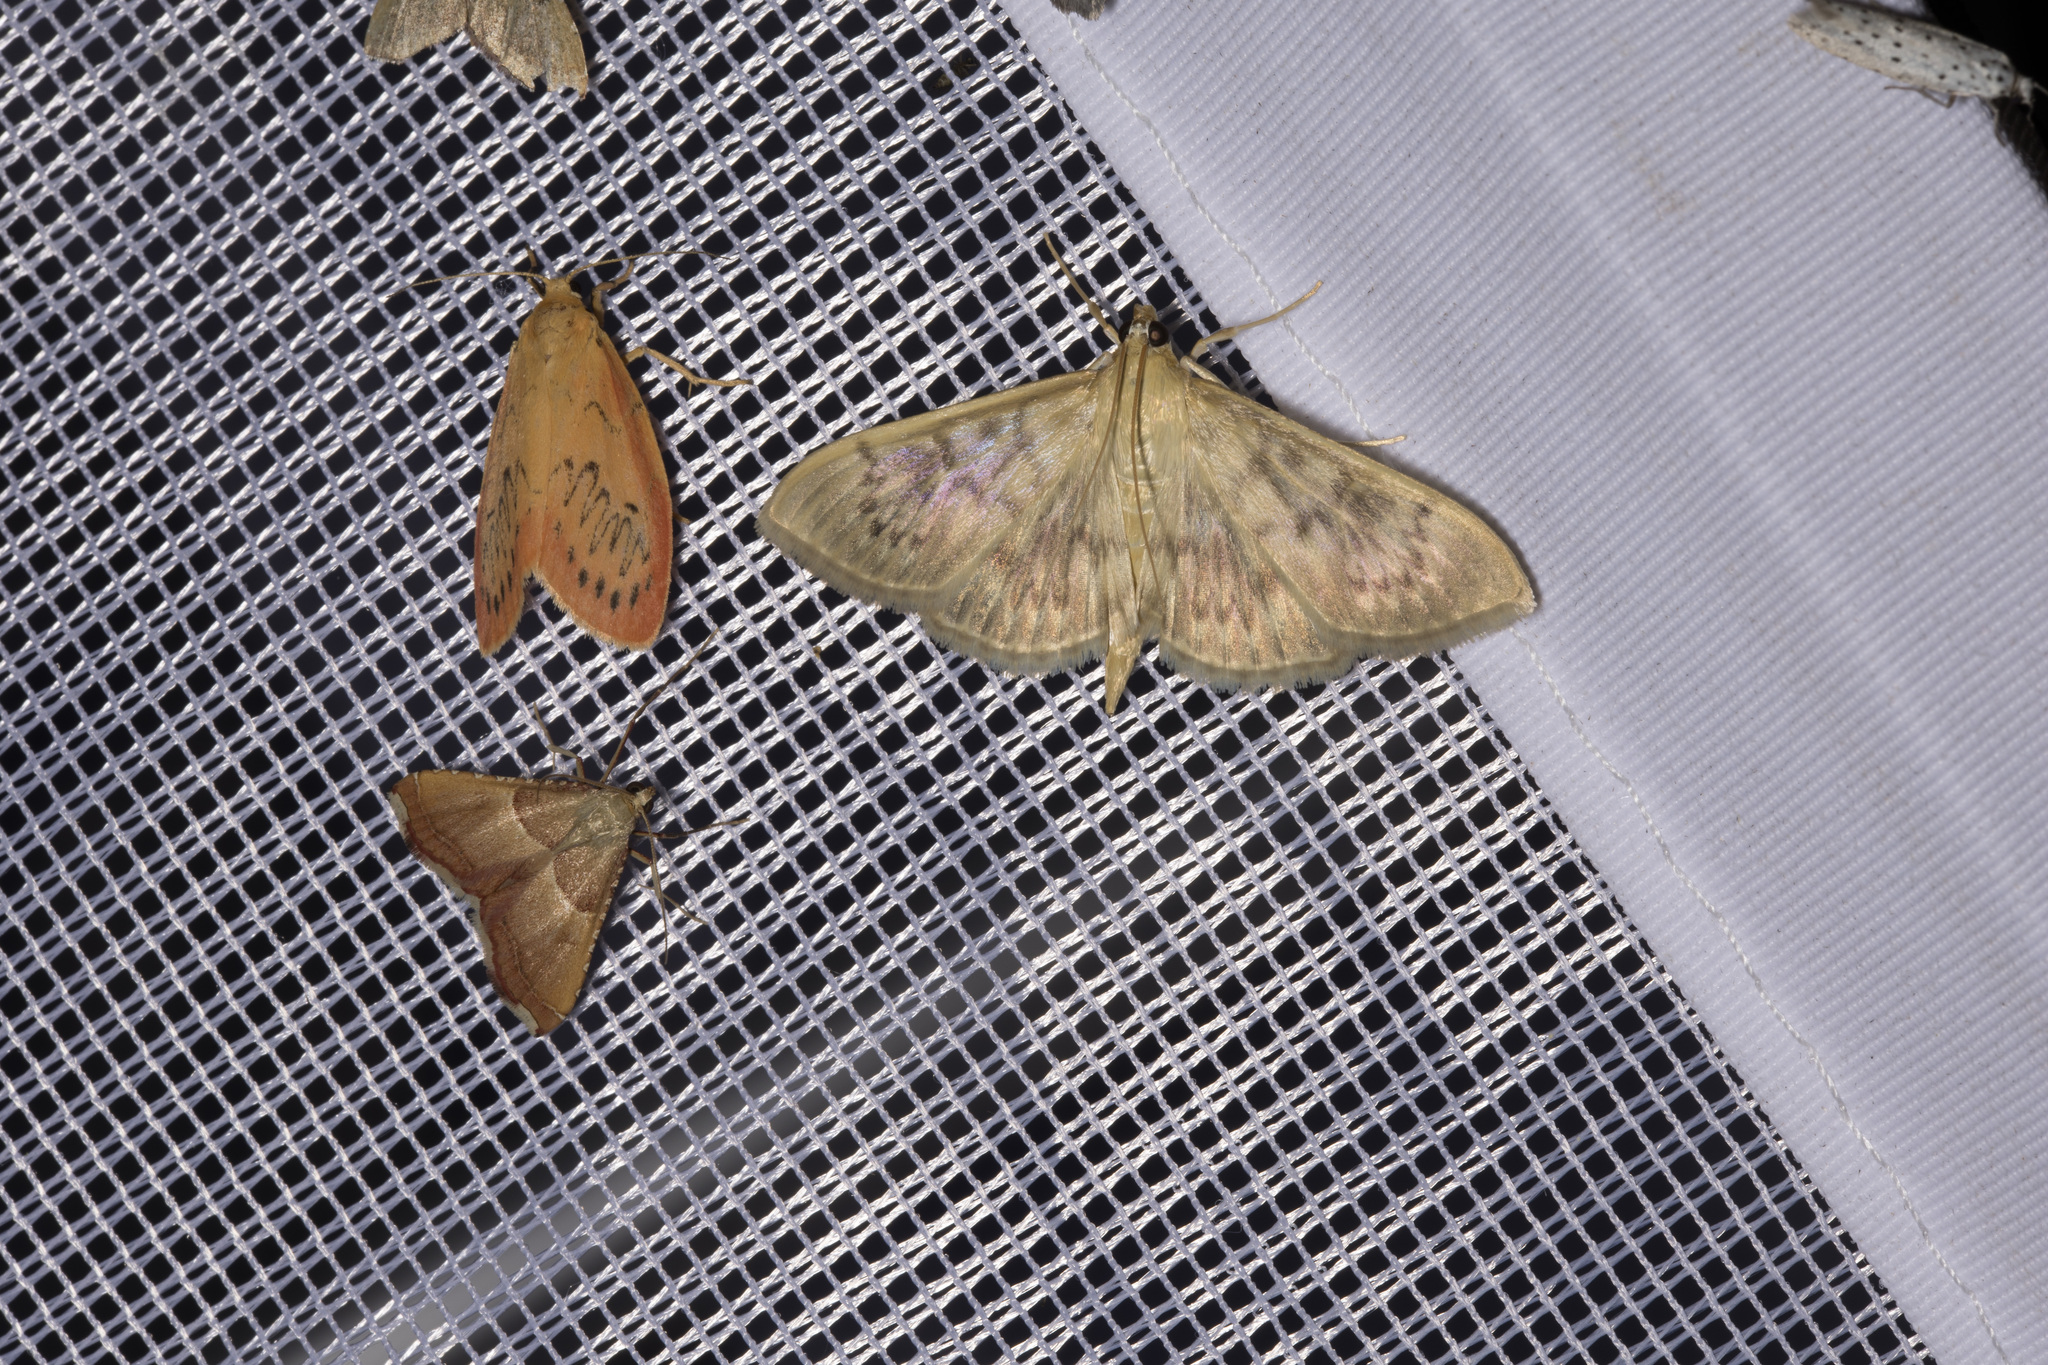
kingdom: Animalia
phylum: Arthropoda
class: Insecta
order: Lepidoptera
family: Crambidae
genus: Patania
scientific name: Patania ruralis
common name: Mother of pearl
